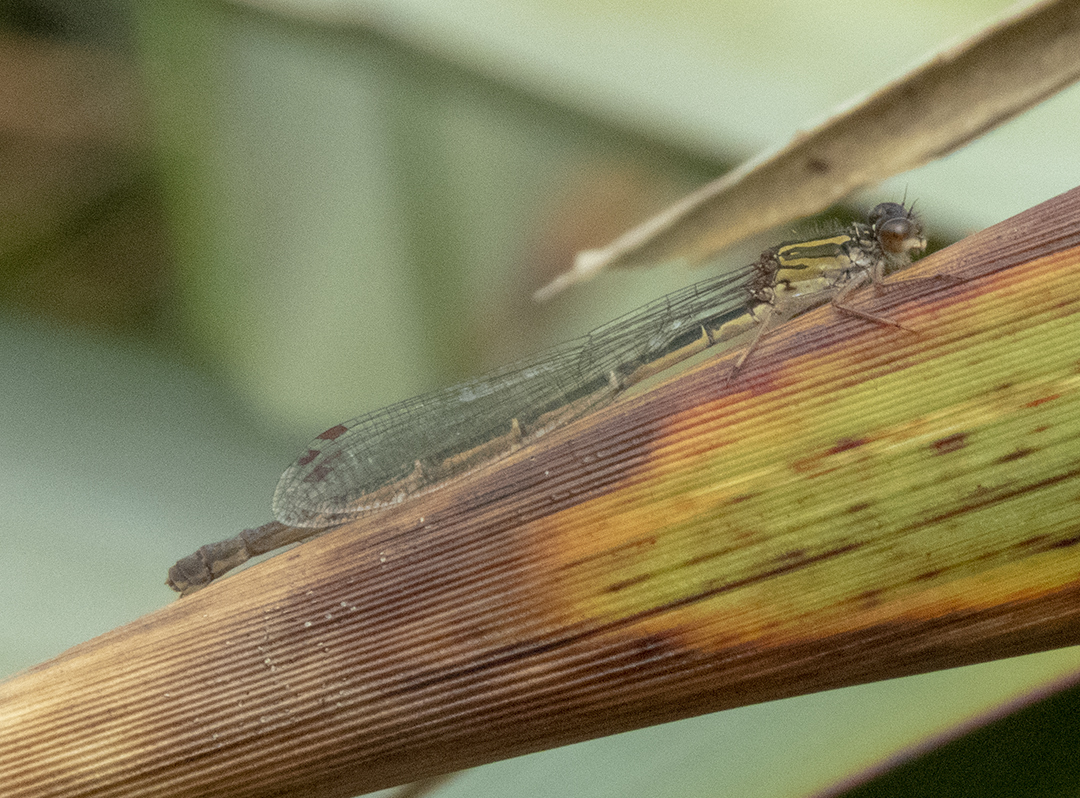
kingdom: Animalia
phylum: Arthropoda
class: Insecta
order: Odonata
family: Coenagrionidae
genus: Xanthocnemis
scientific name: Xanthocnemis zealandica
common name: Common redcoat damselfly
